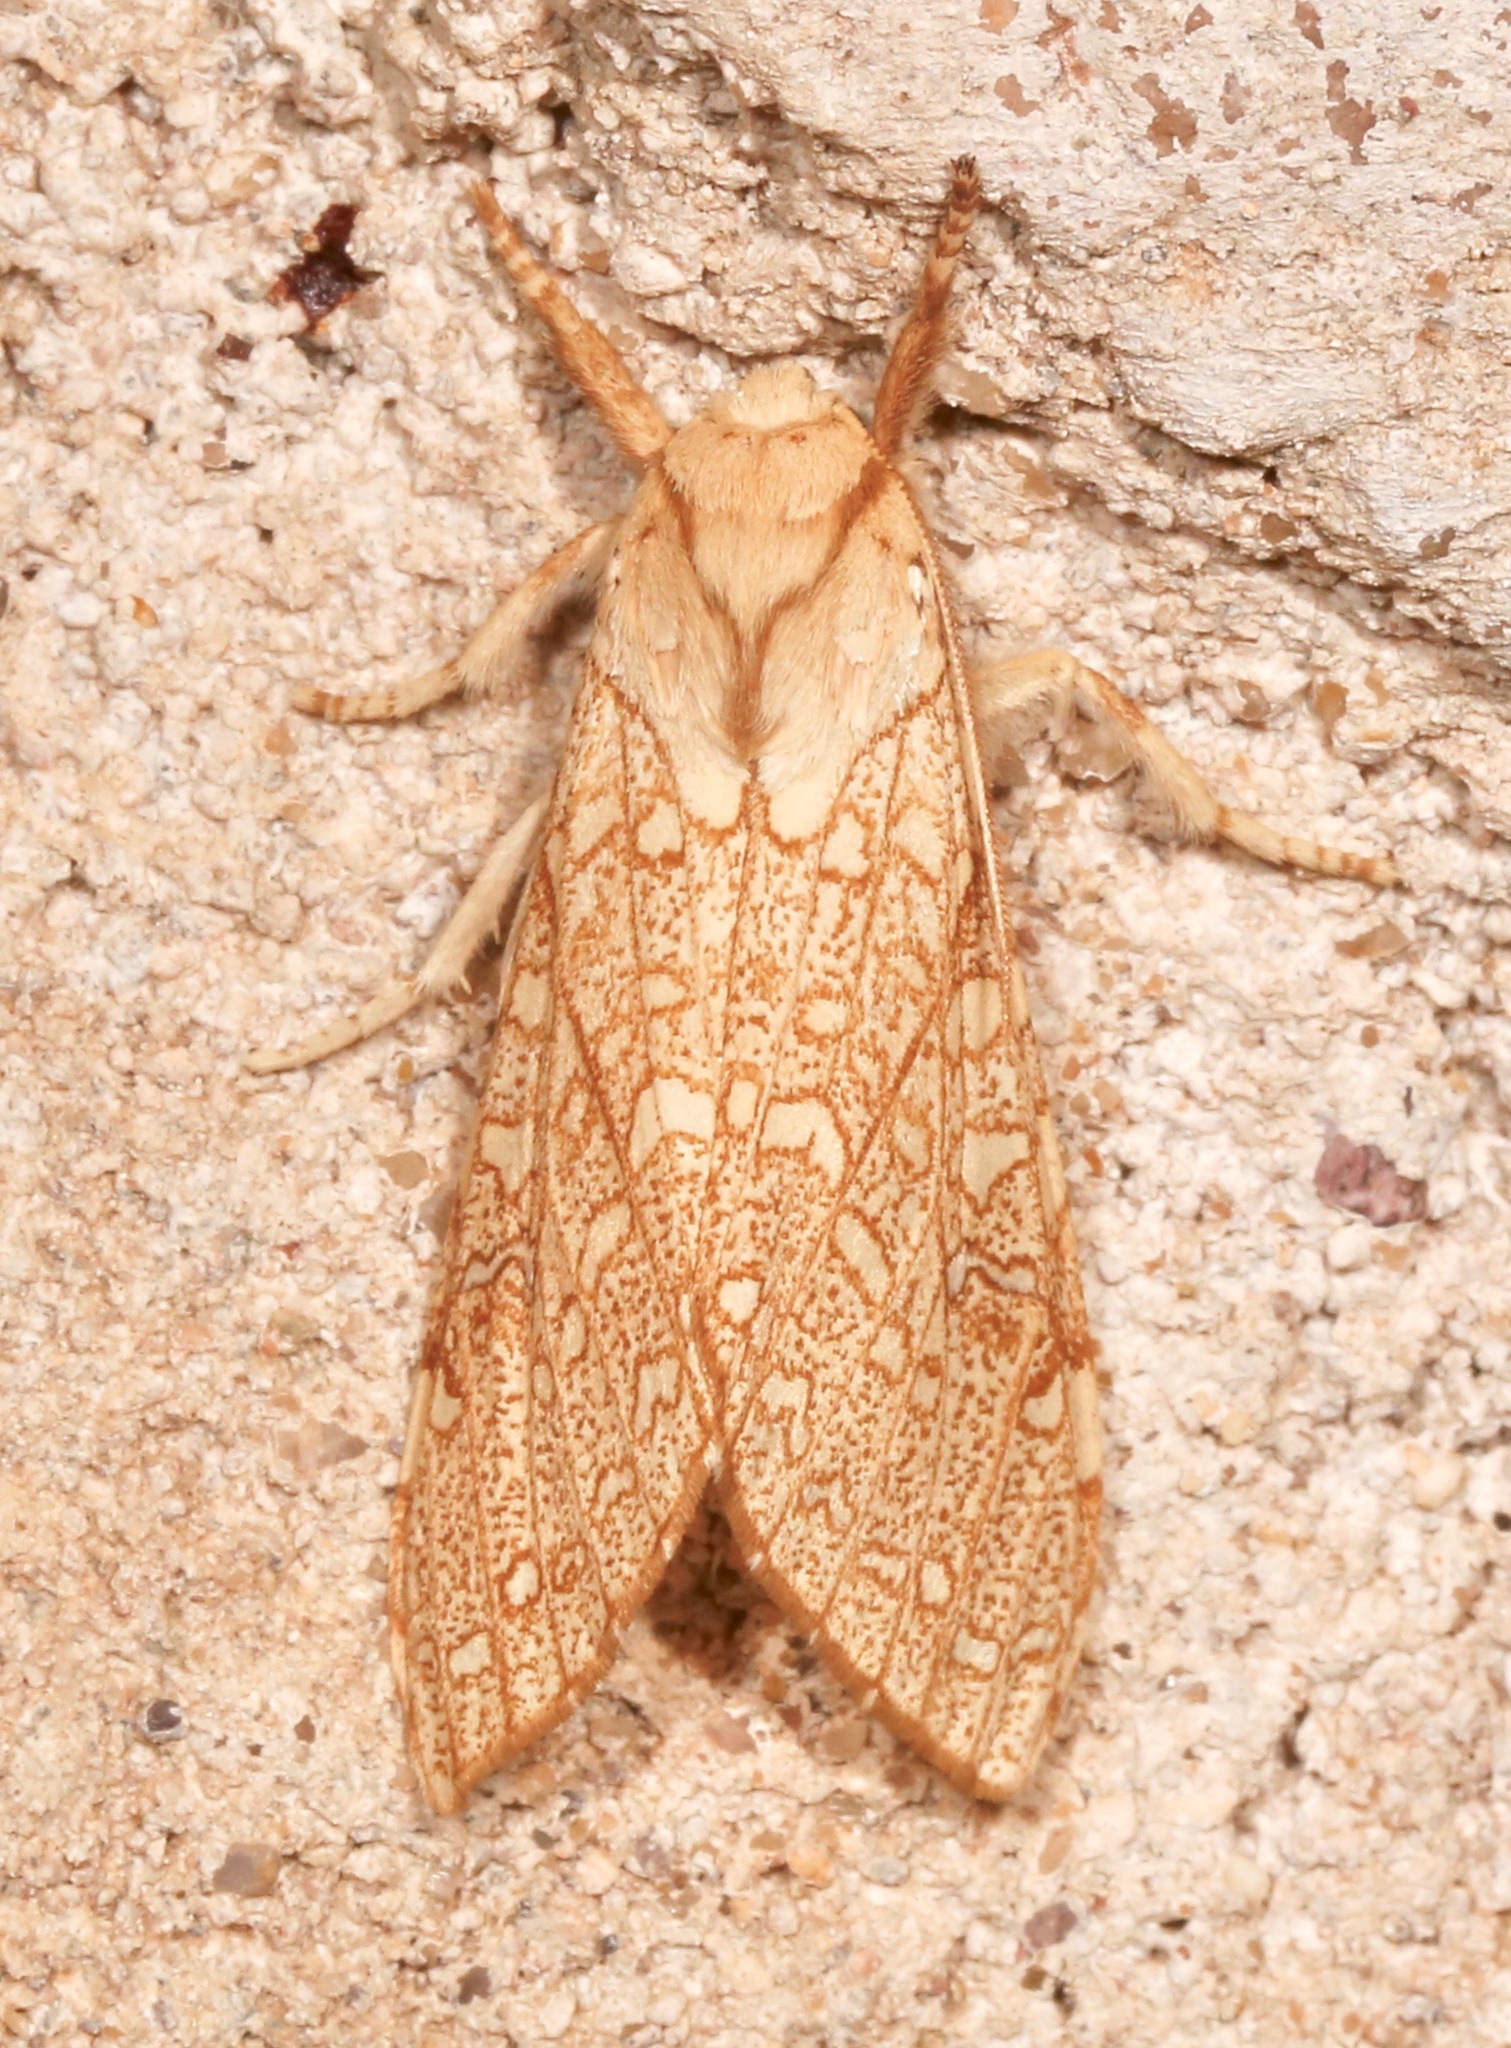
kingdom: Animalia
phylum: Arthropoda
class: Insecta
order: Lepidoptera
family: Erebidae
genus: Lophocampa
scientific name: Lophocampa mixta
